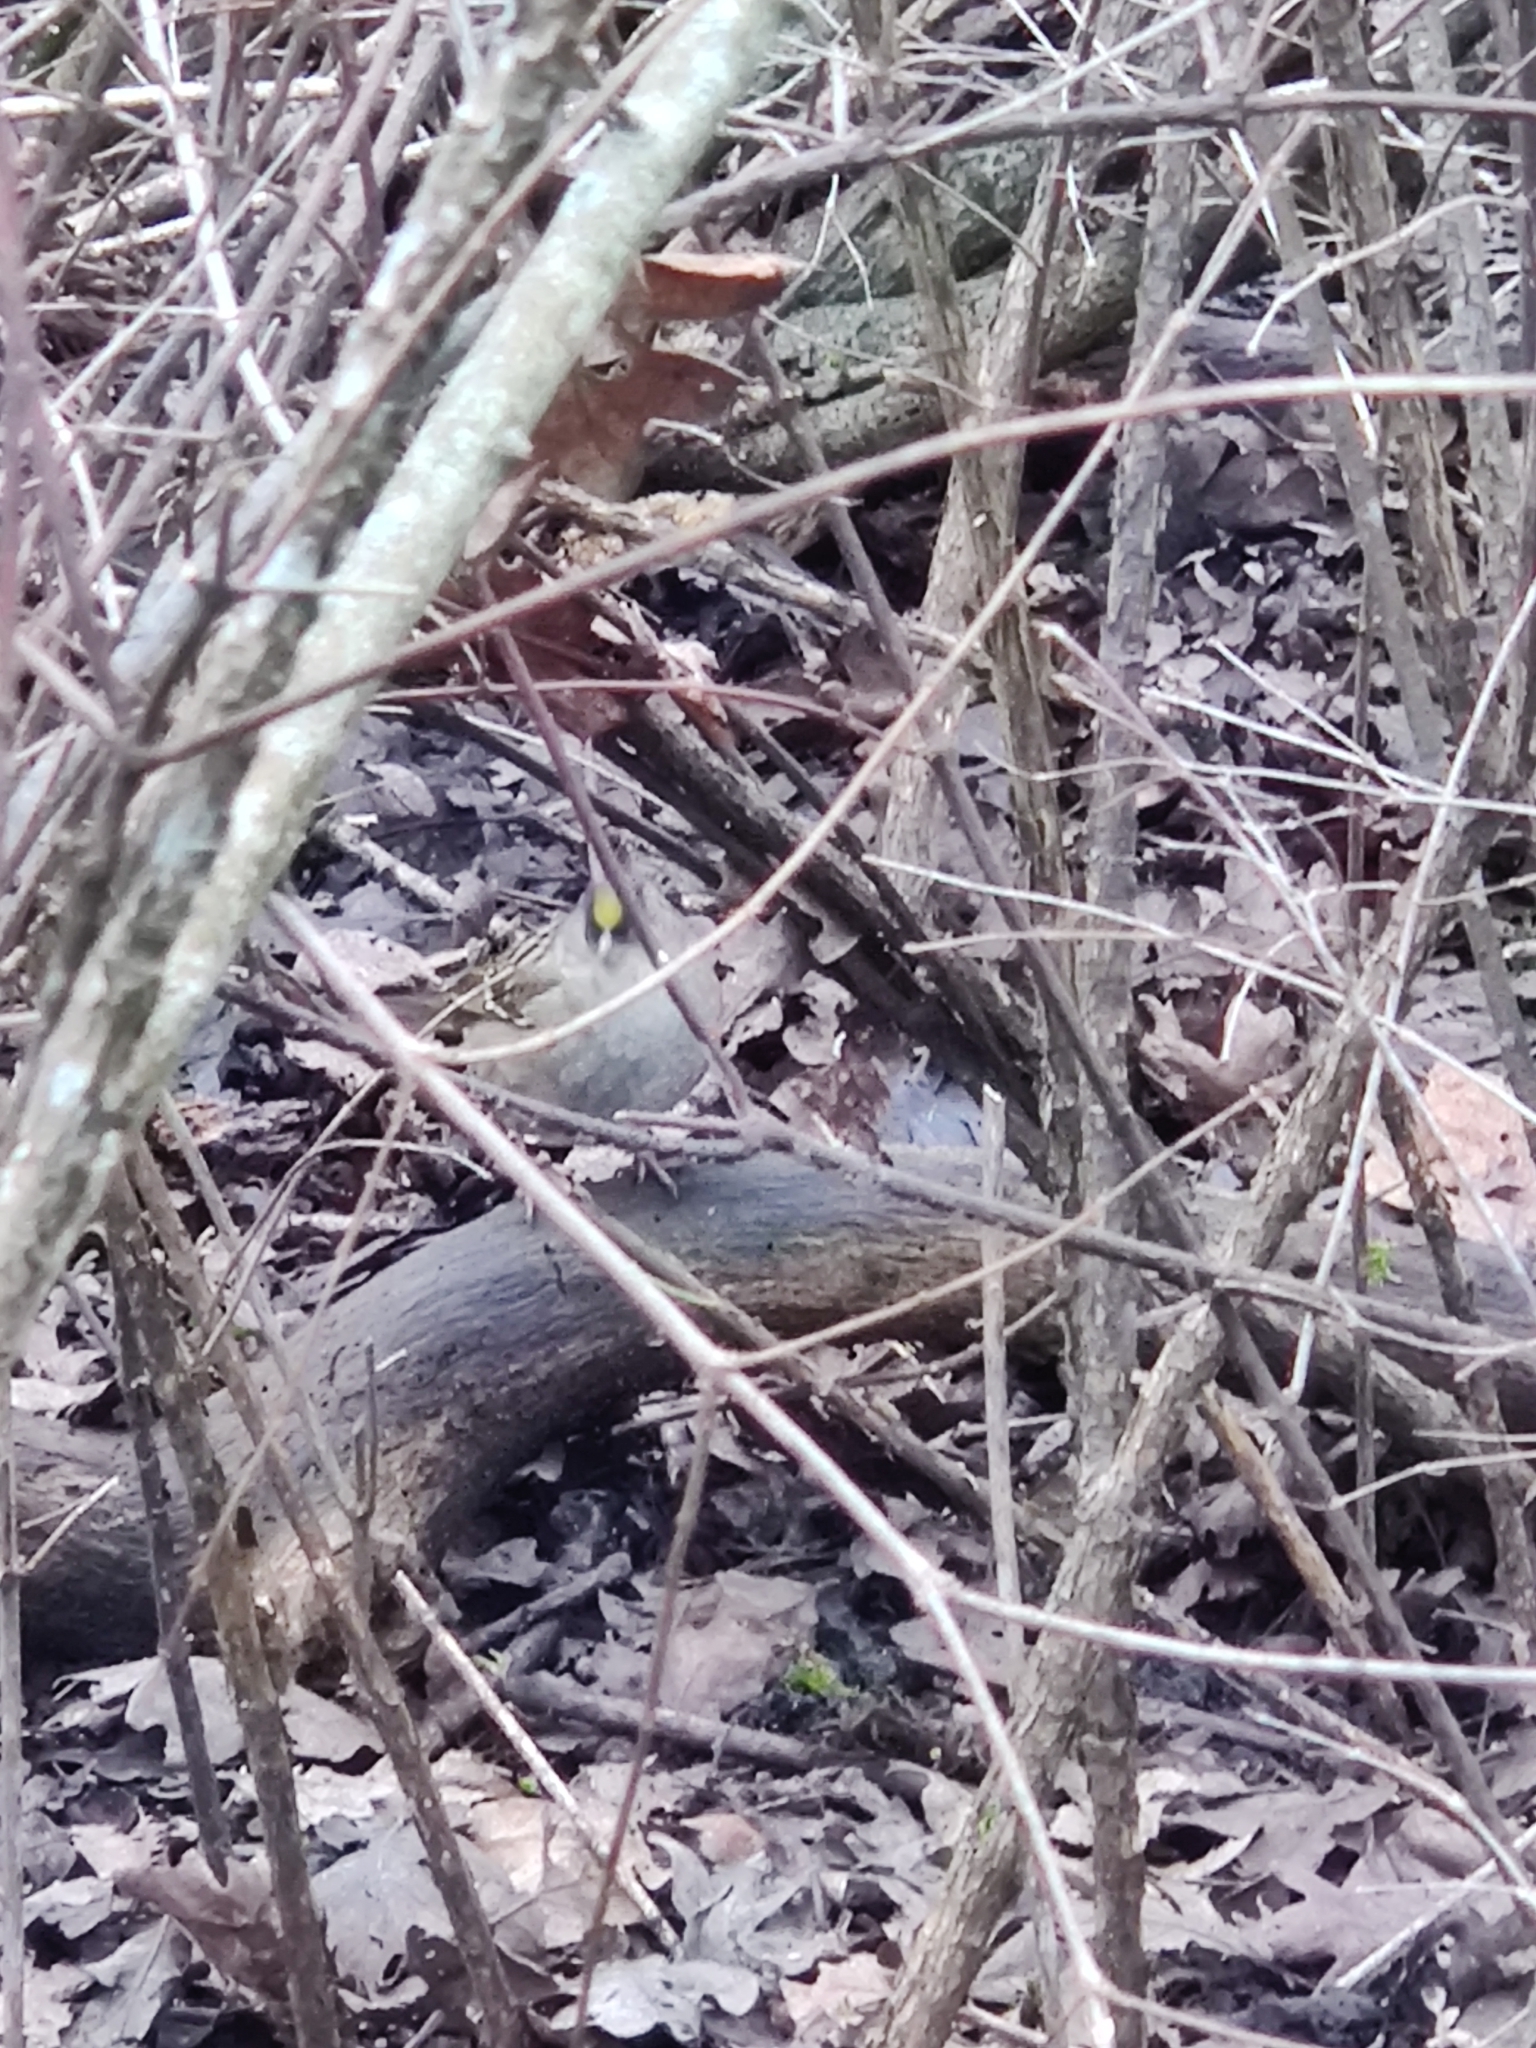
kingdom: Animalia
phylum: Chordata
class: Aves
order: Passeriformes
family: Passerellidae
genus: Zonotrichia
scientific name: Zonotrichia atricapilla
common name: Golden-crowned sparrow
